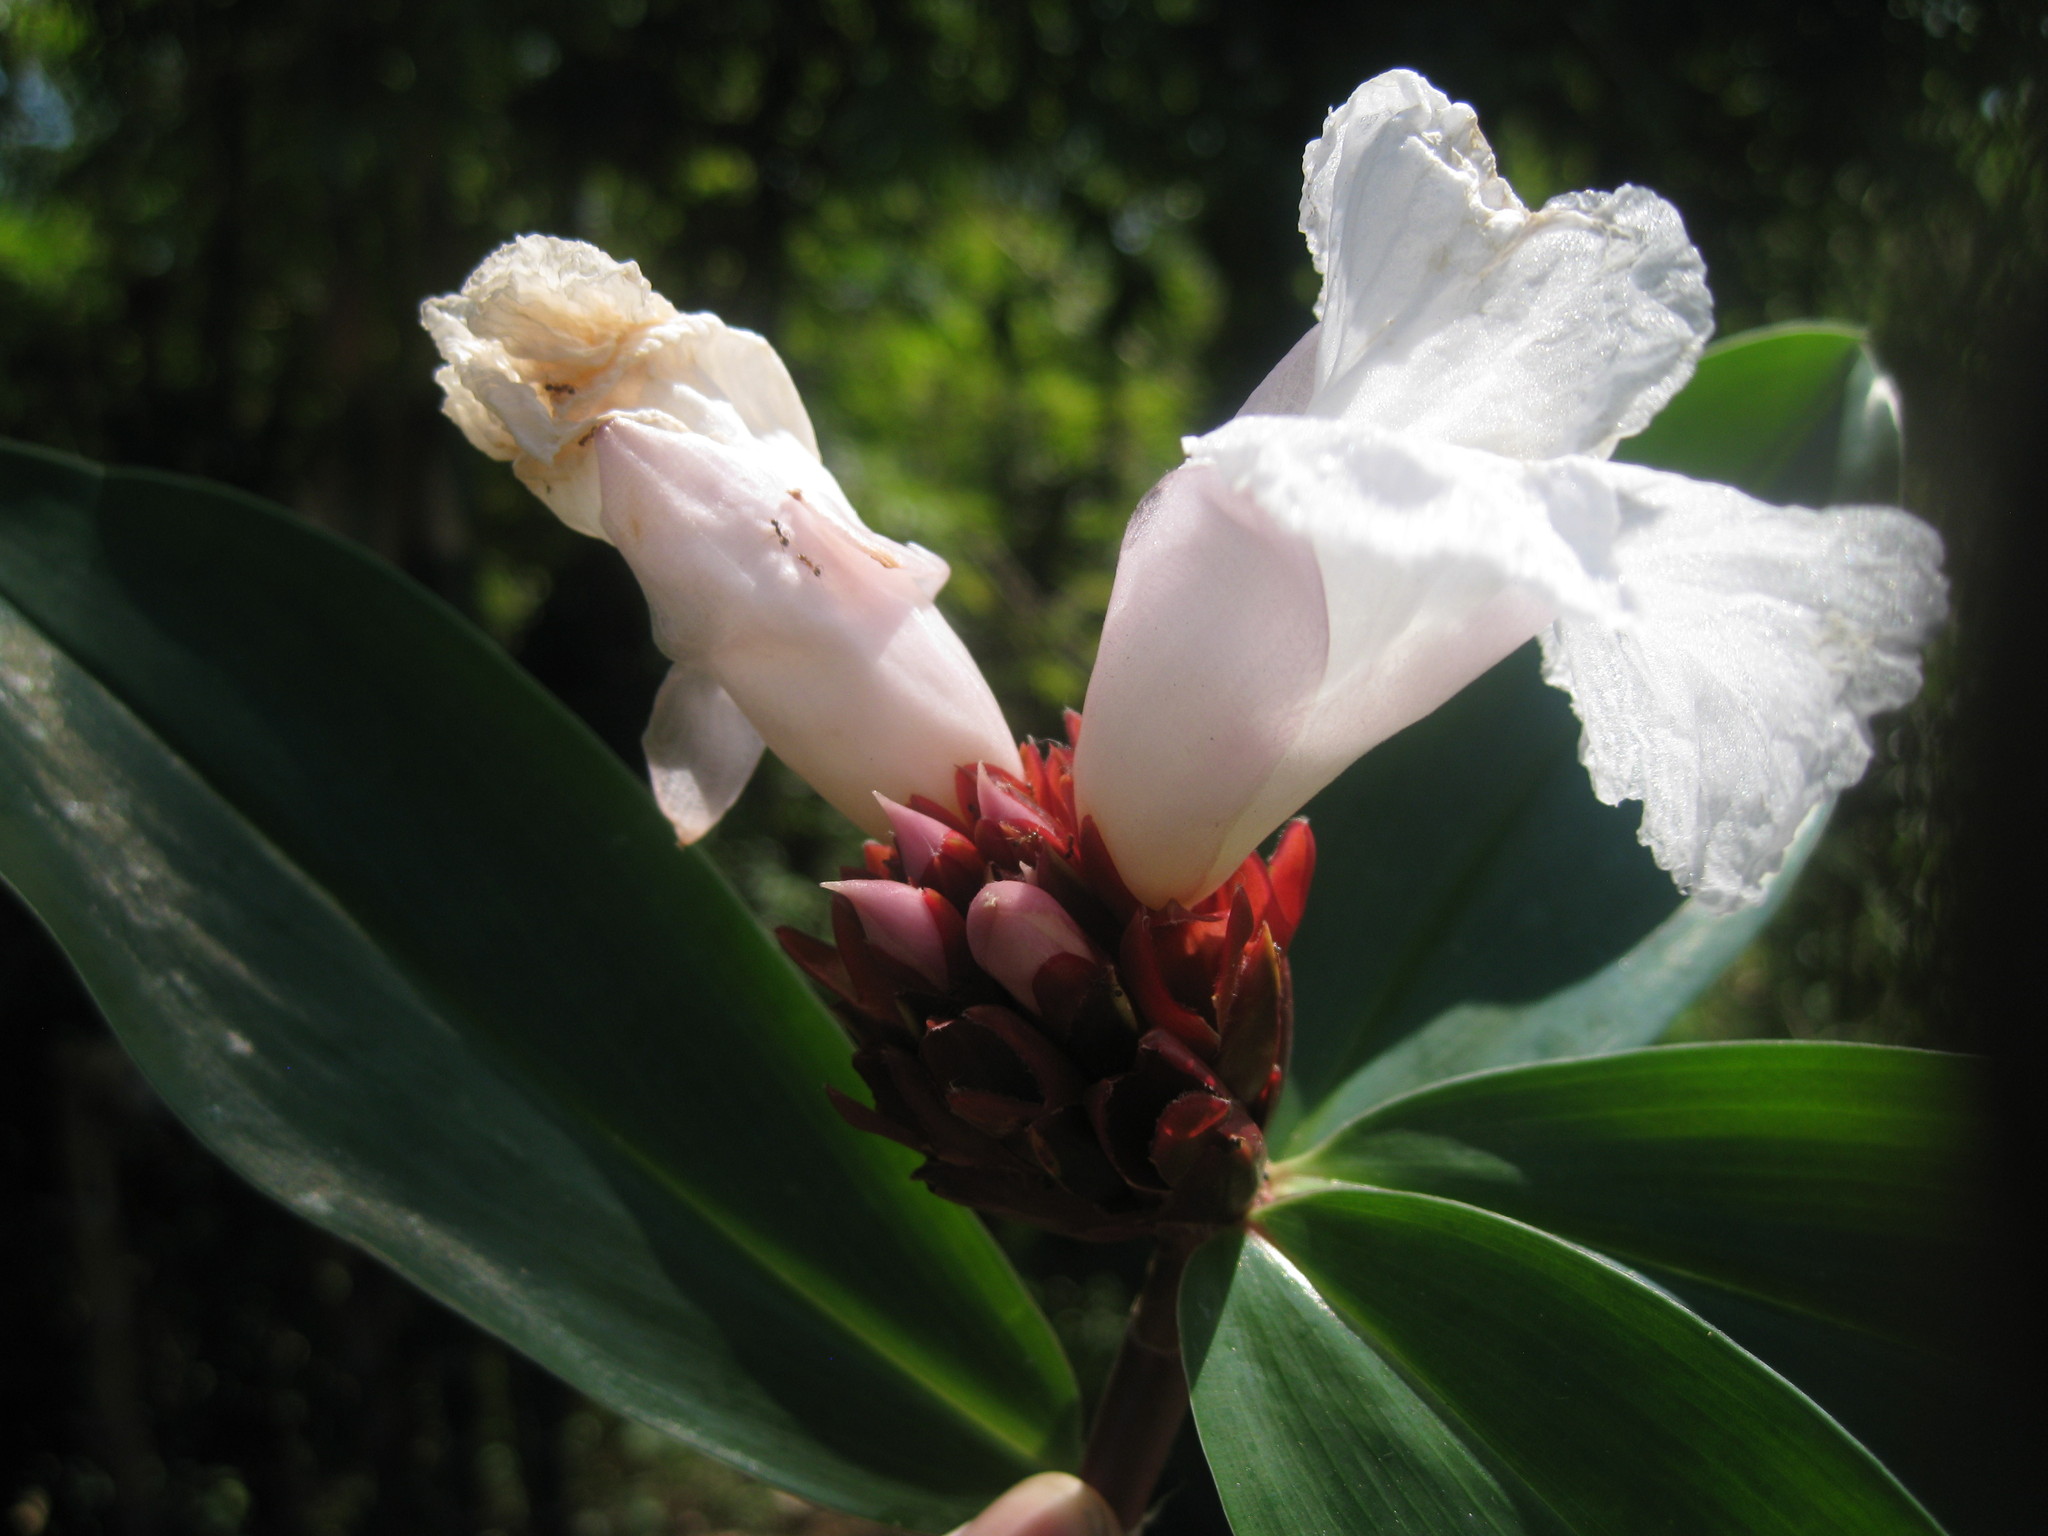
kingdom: Plantae
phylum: Tracheophyta
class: Liliopsida
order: Zingiberales
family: Costaceae
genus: Hellenia
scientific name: Hellenia speciosa
